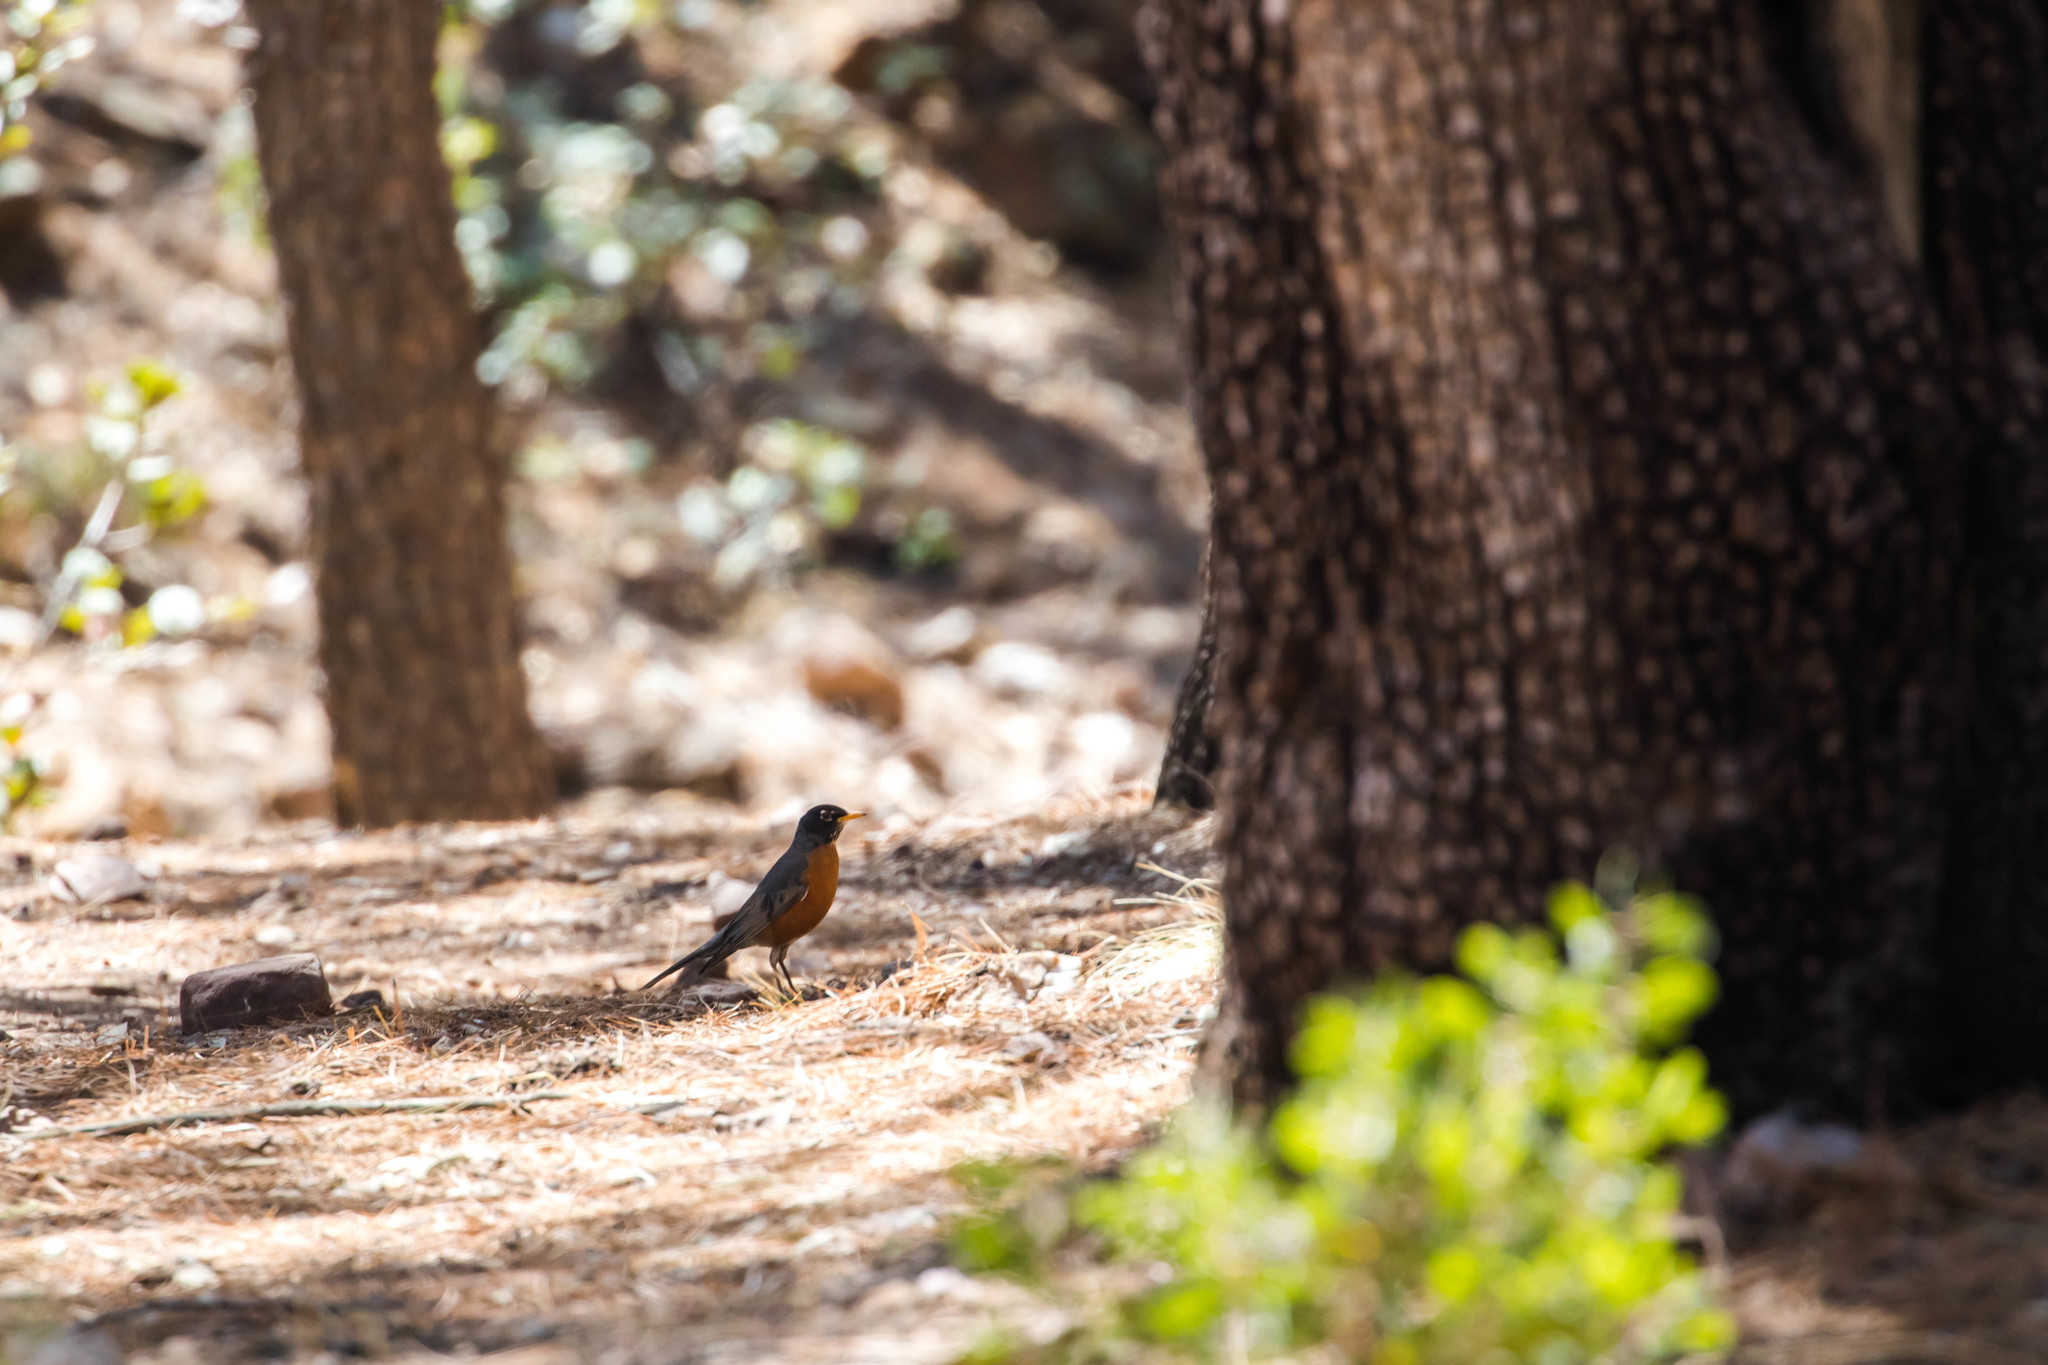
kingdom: Animalia
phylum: Chordata
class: Aves
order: Passeriformes
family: Turdidae
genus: Turdus
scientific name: Turdus migratorius
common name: American robin
